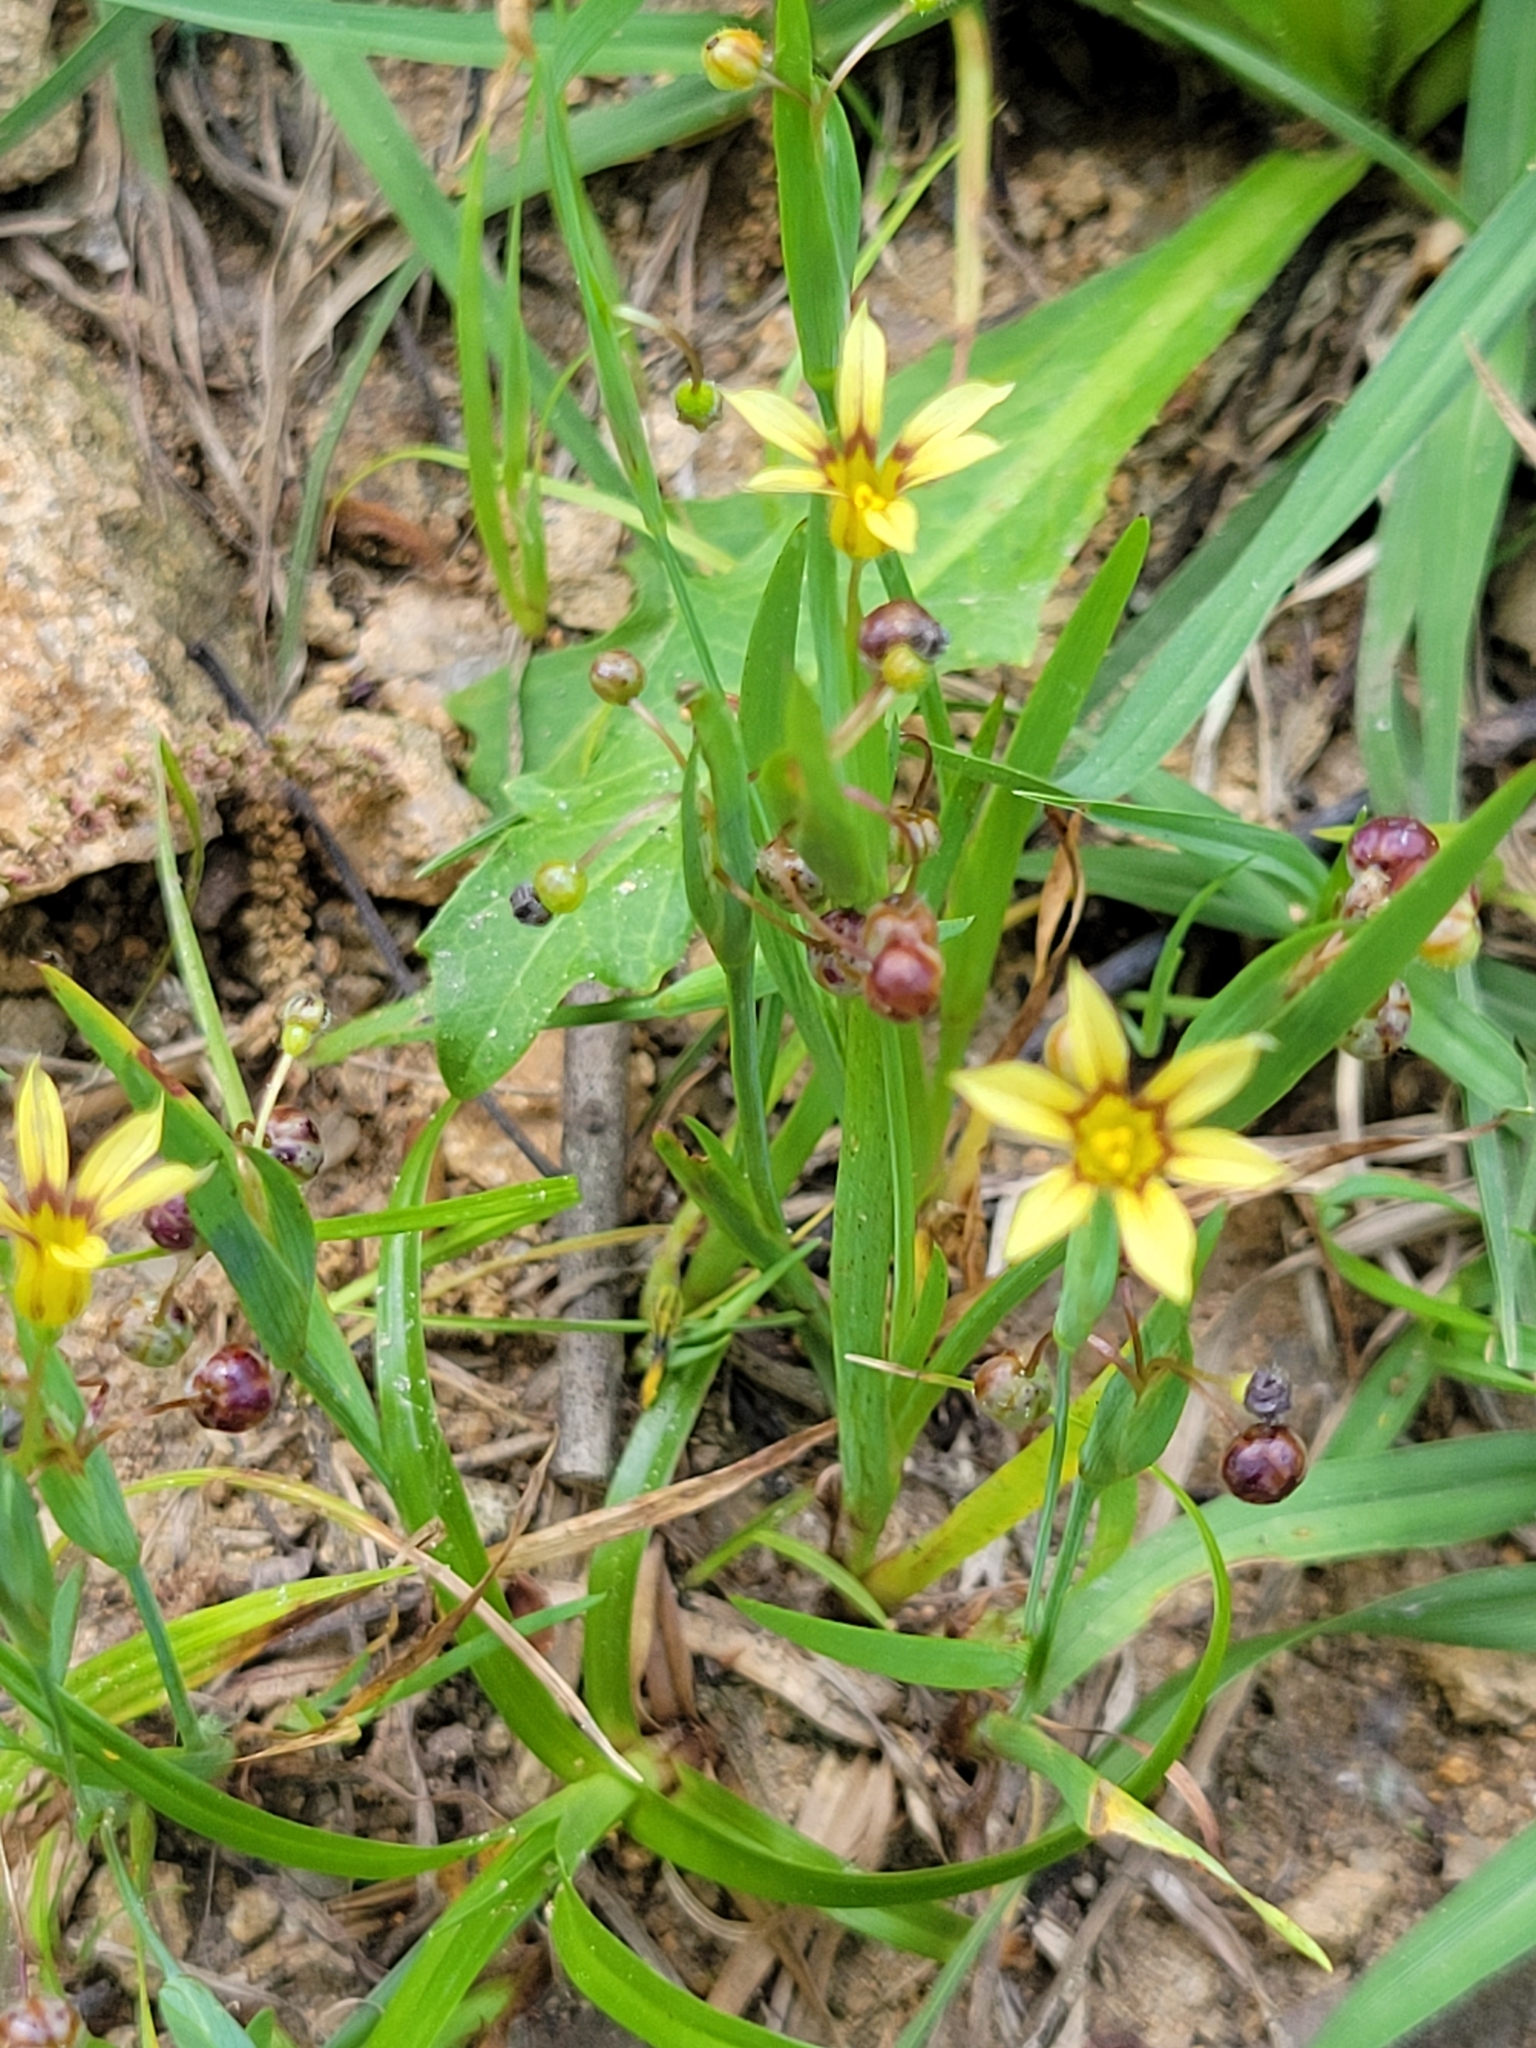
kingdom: Plantae
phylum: Tracheophyta
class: Liliopsida
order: Asparagales
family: Iridaceae
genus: Sisyrinchium
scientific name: Sisyrinchium micranthum
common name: Bermuda pigroot
